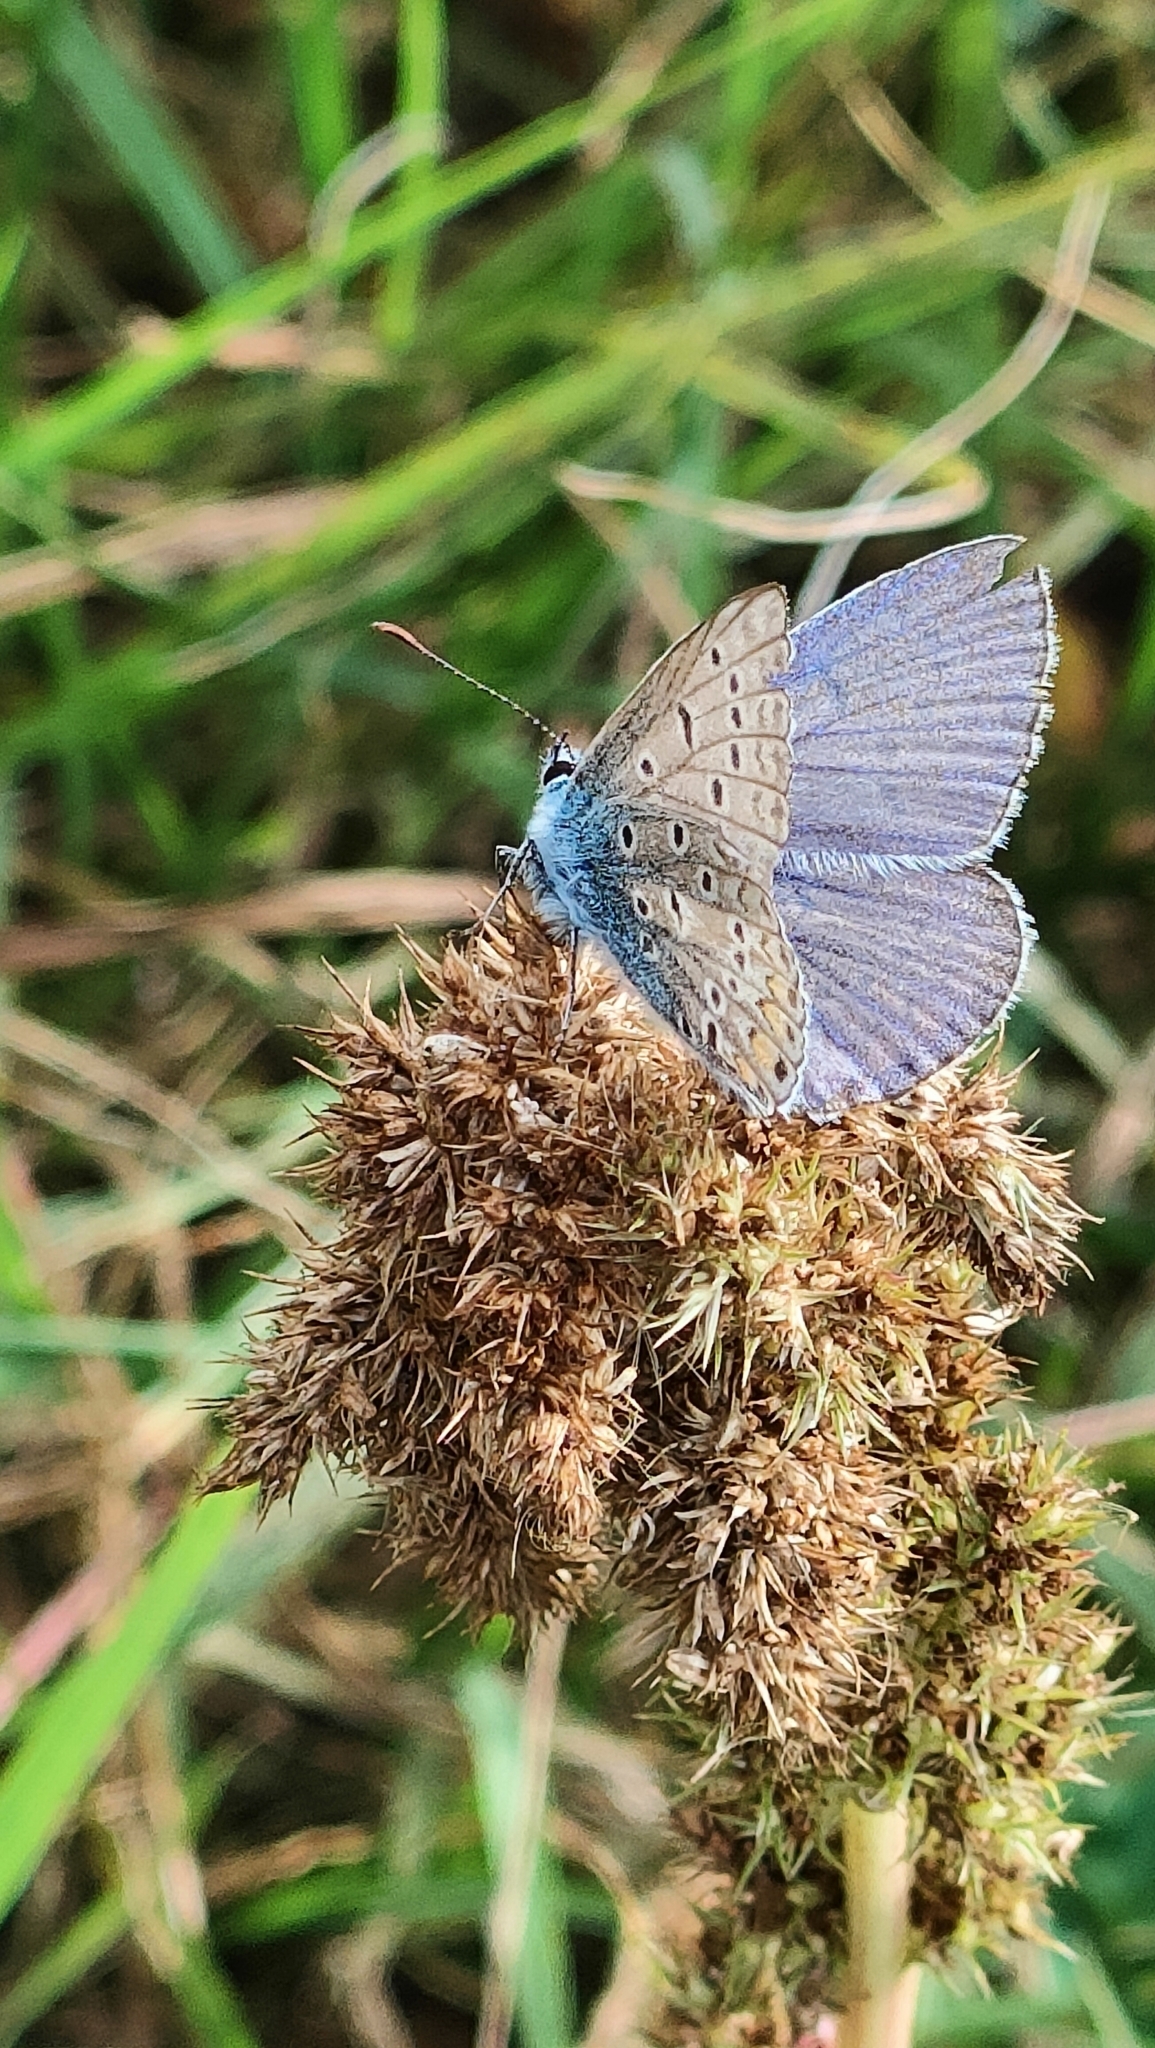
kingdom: Animalia
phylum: Arthropoda
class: Insecta
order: Lepidoptera
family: Lycaenidae
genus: Polyommatus
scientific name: Polyommatus icarus
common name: Common blue
